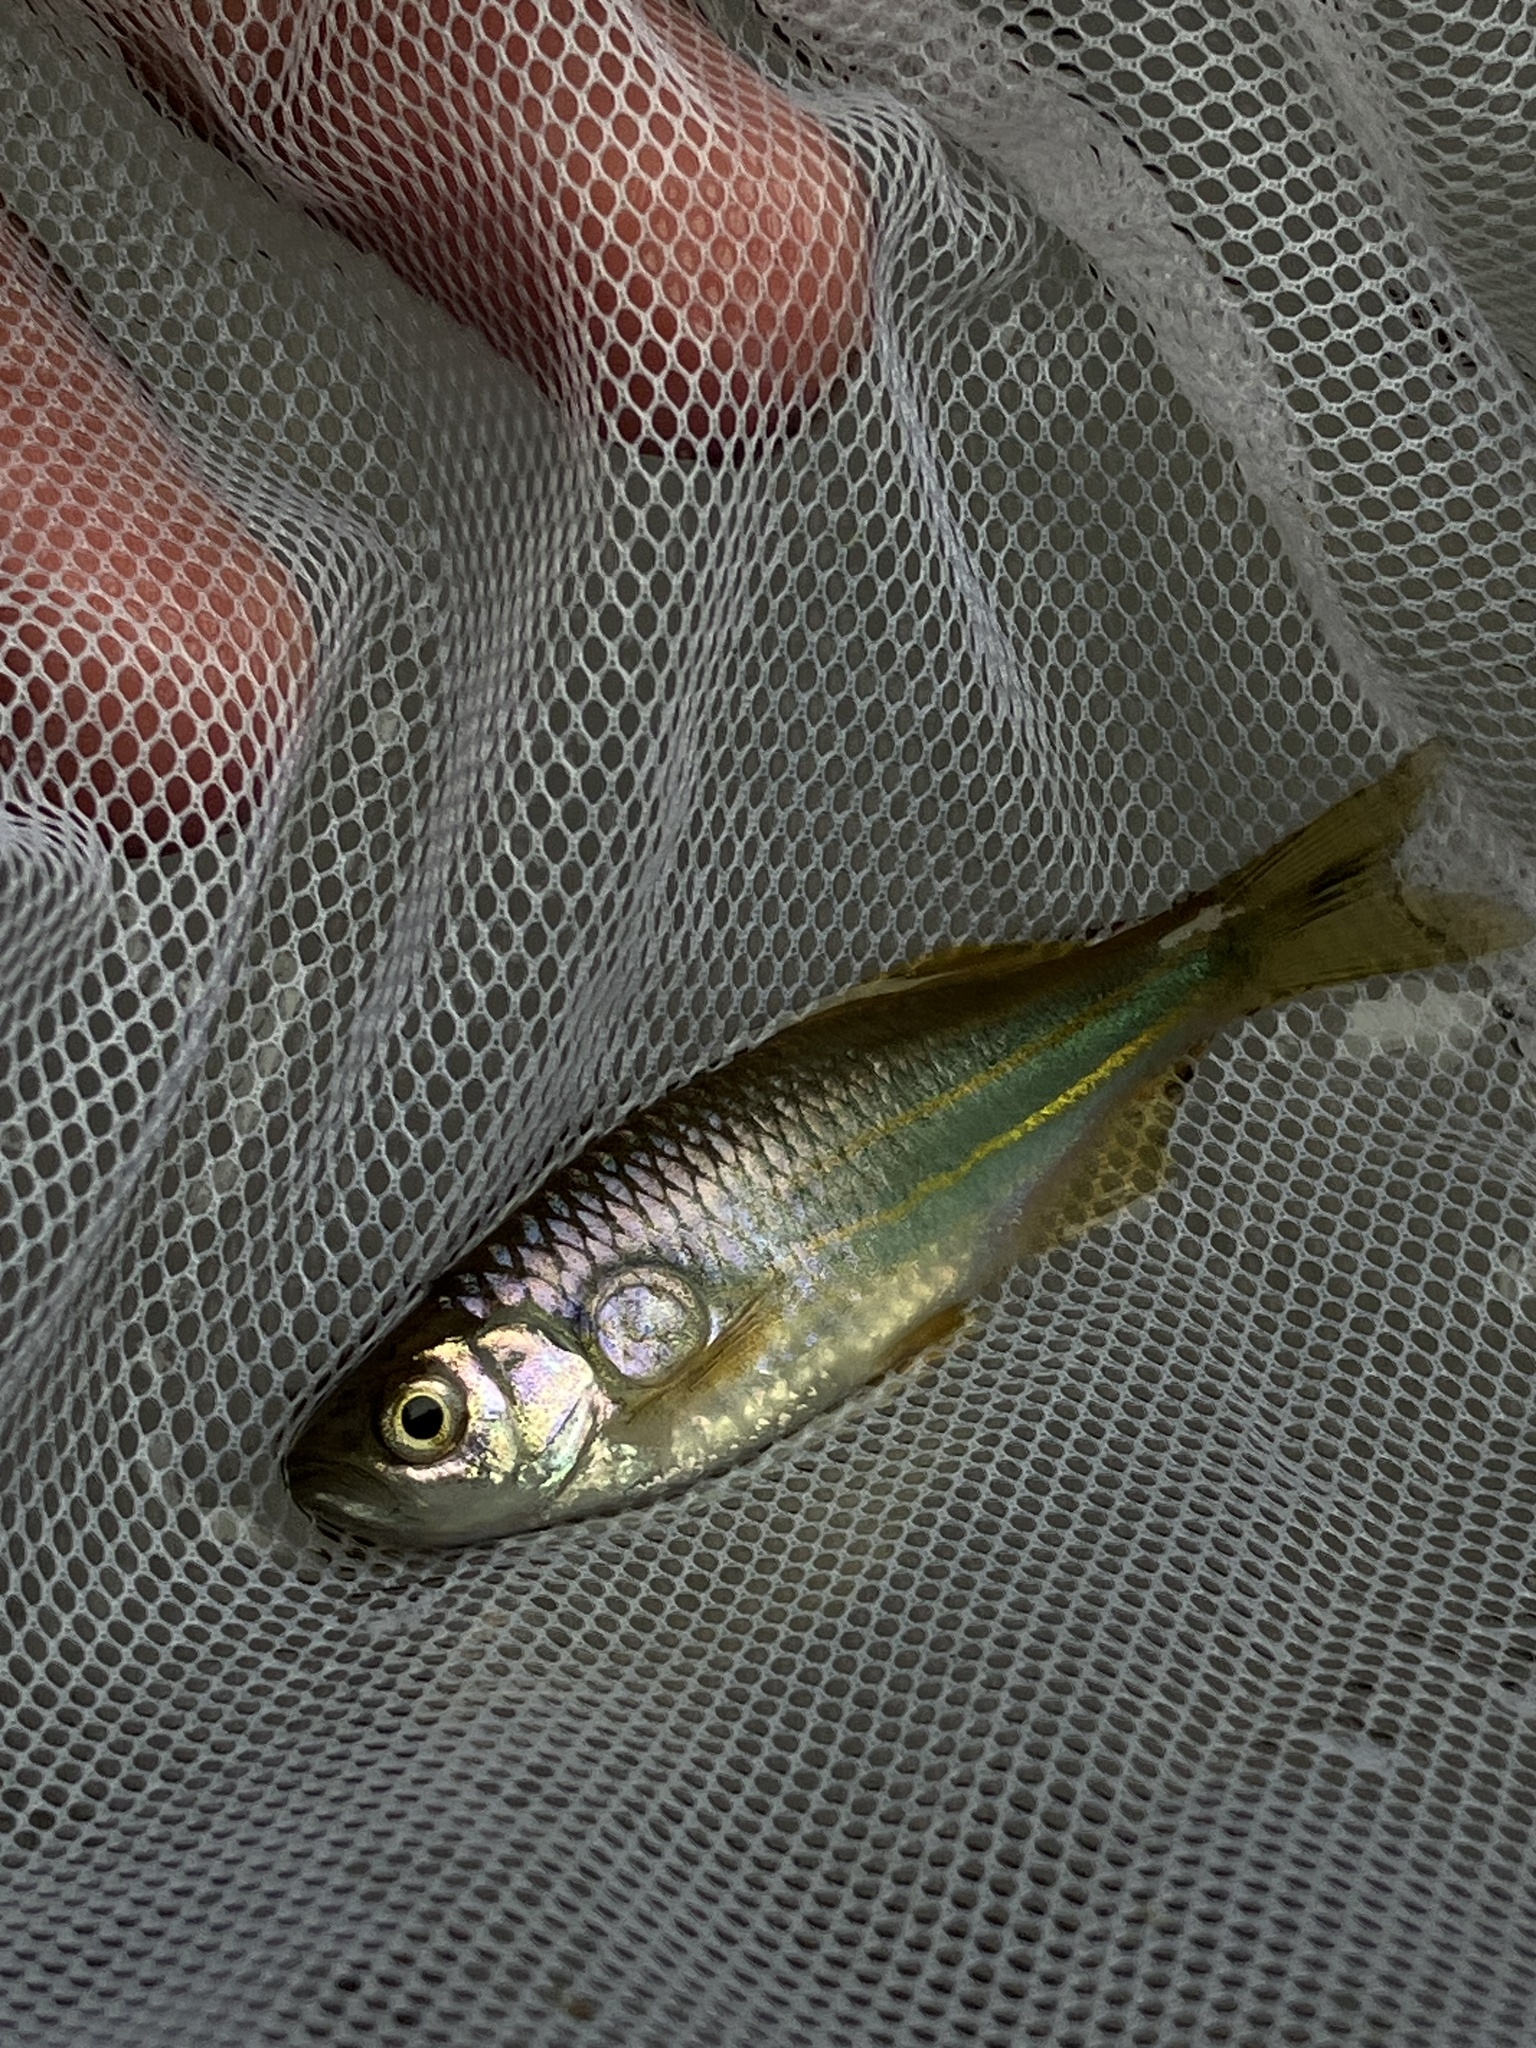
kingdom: Animalia
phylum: Chordata
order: Cypriniformes
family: Cyprinidae
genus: Devario
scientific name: Devario aequipinnatus
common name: Giant danio
